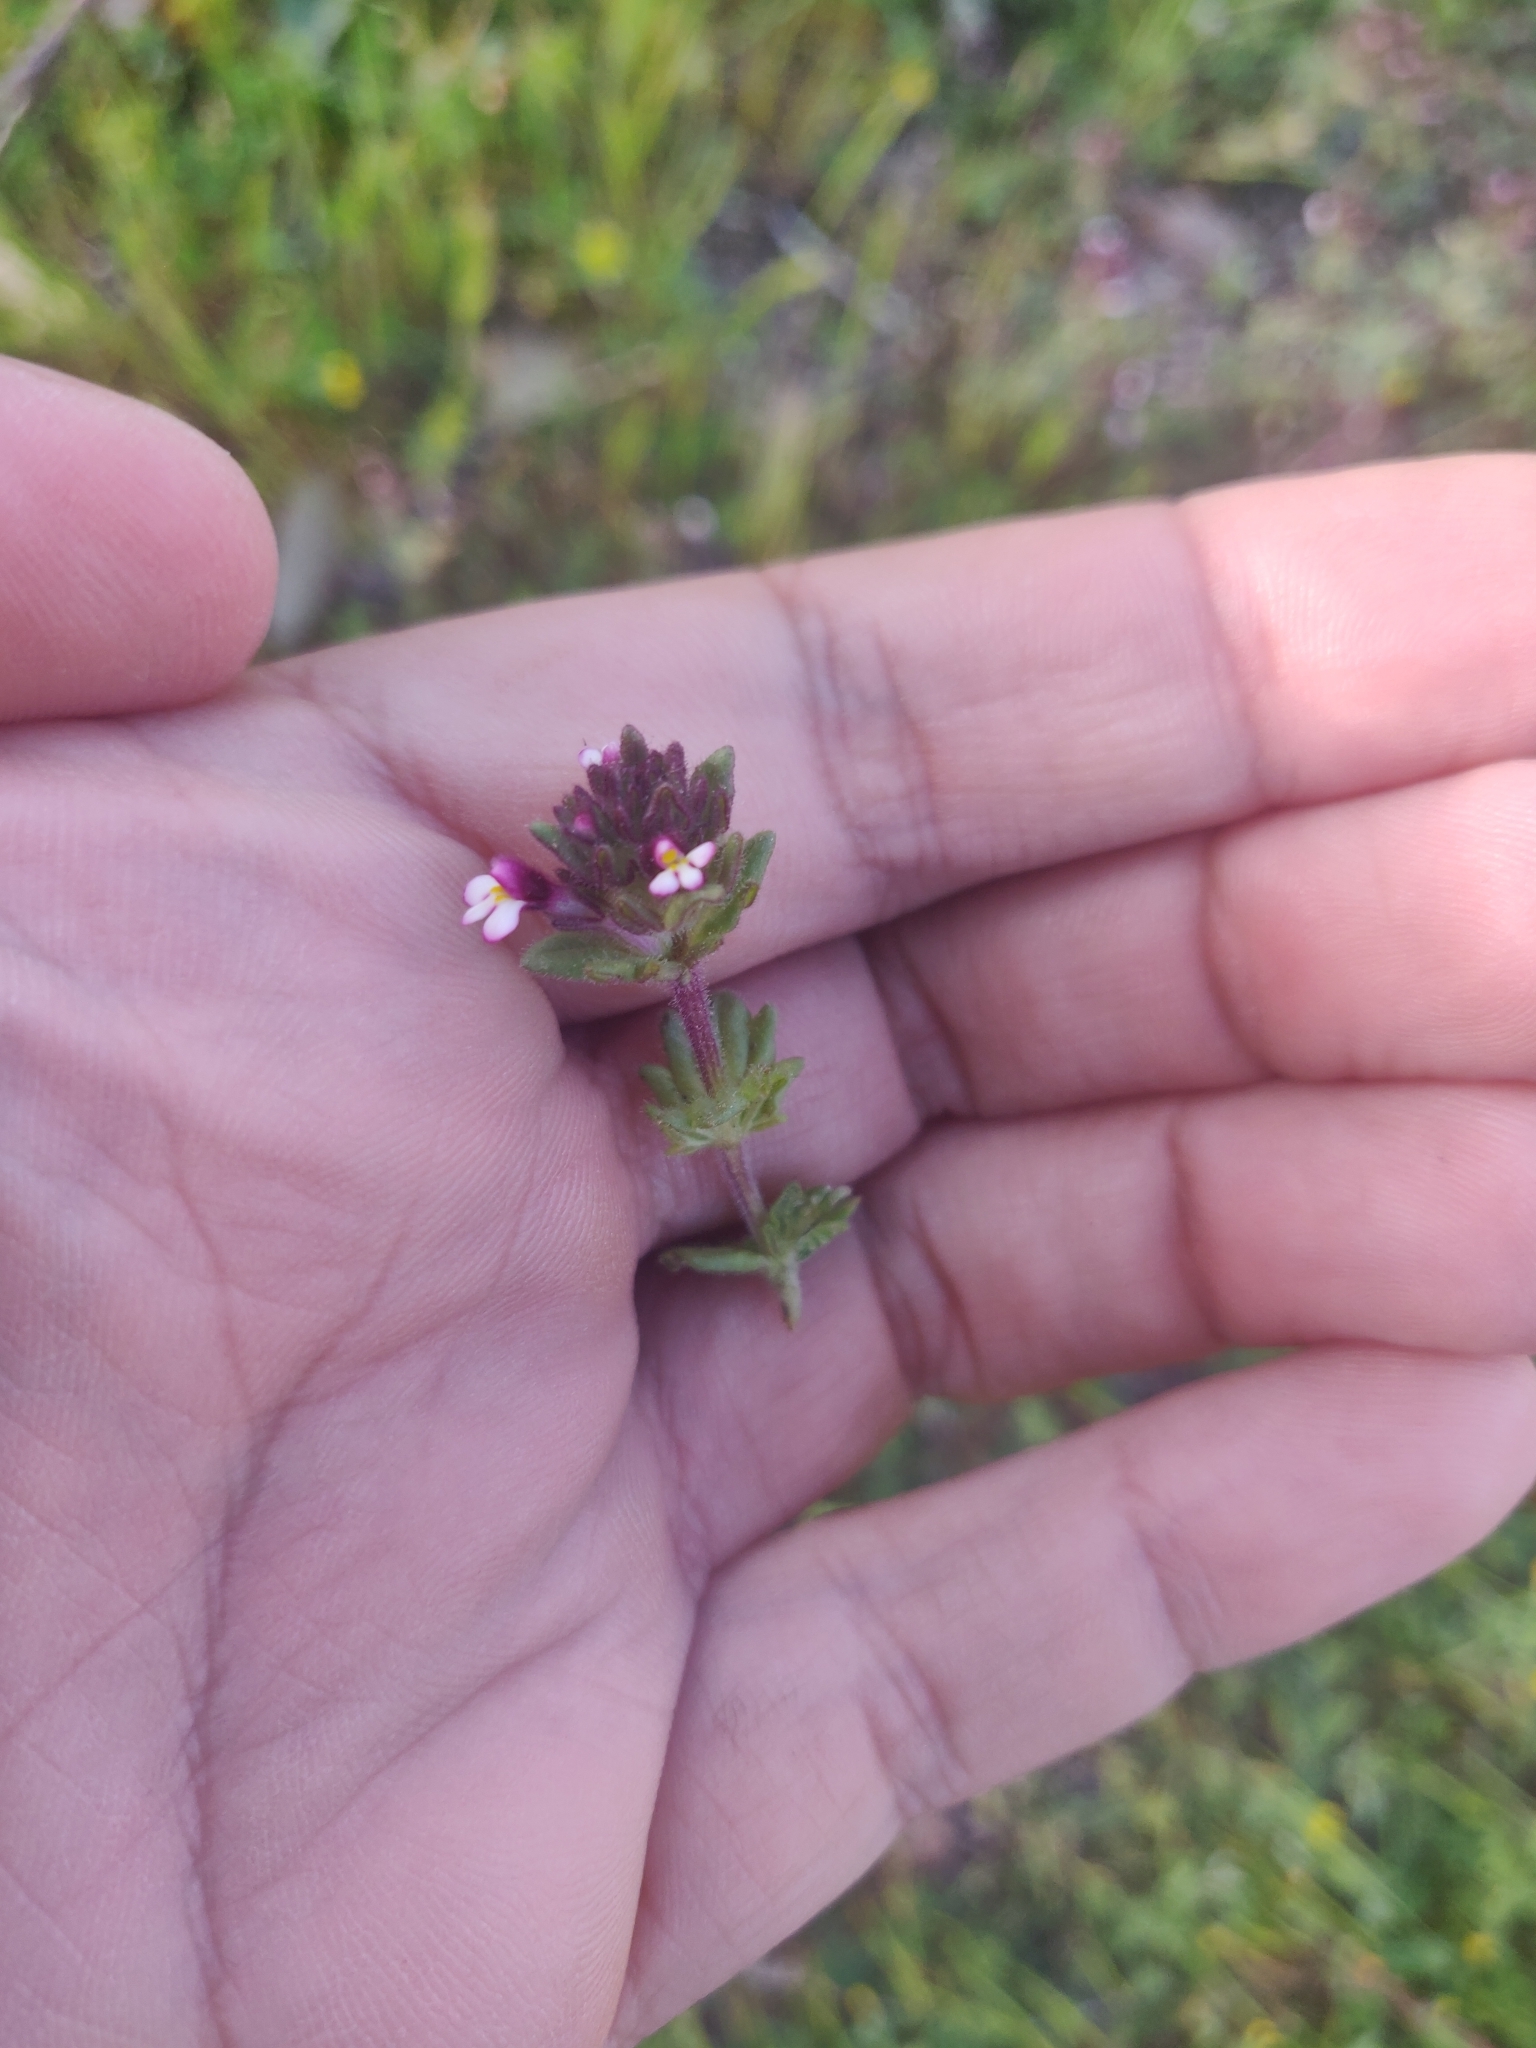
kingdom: Plantae
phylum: Tracheophyta
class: Magnoliopsida
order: Lamiales
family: Orobanchaceae
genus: Parentucellia
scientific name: Parentucellia latifolia
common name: Broadleaf glandweed
